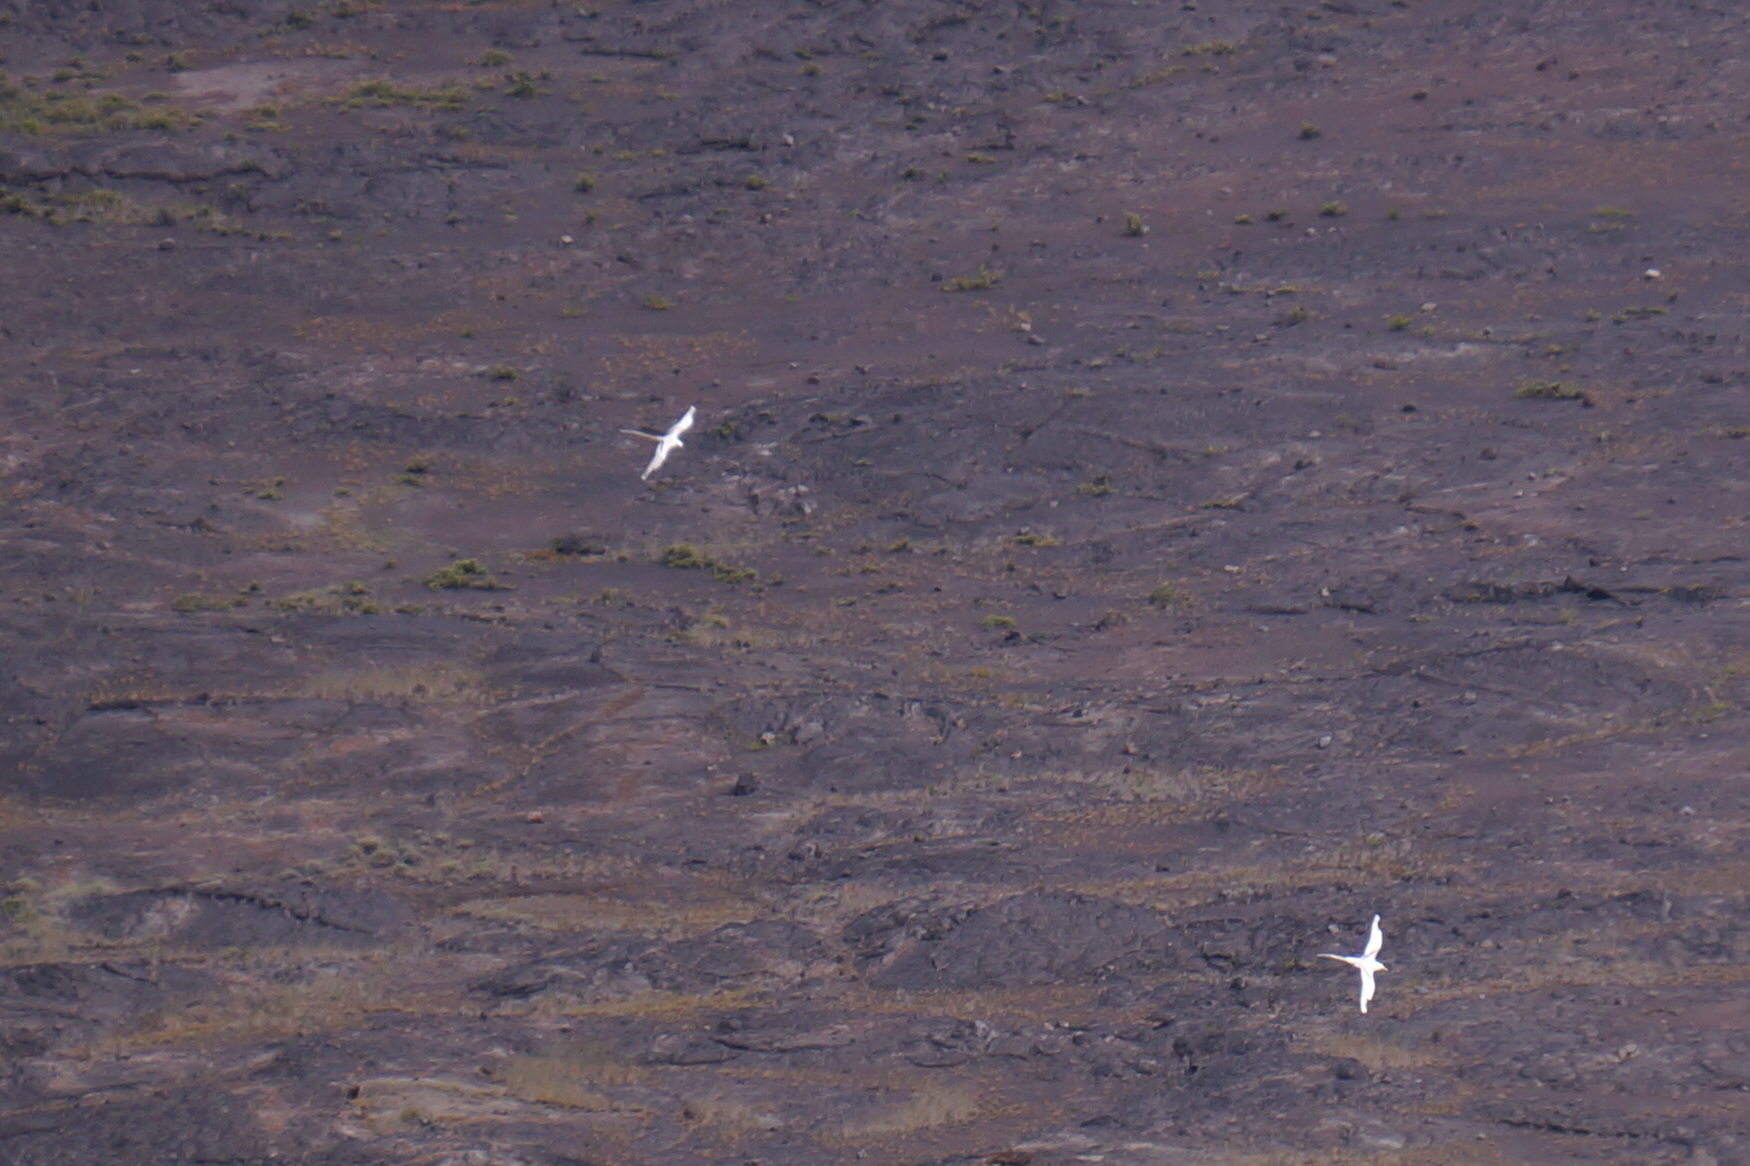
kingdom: Animalia
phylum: Chordata
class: Aves
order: Phaethontiformes
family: Phaethontidae
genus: Phaethon
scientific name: Phaethon lepturus
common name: White-tailed tropicbird
